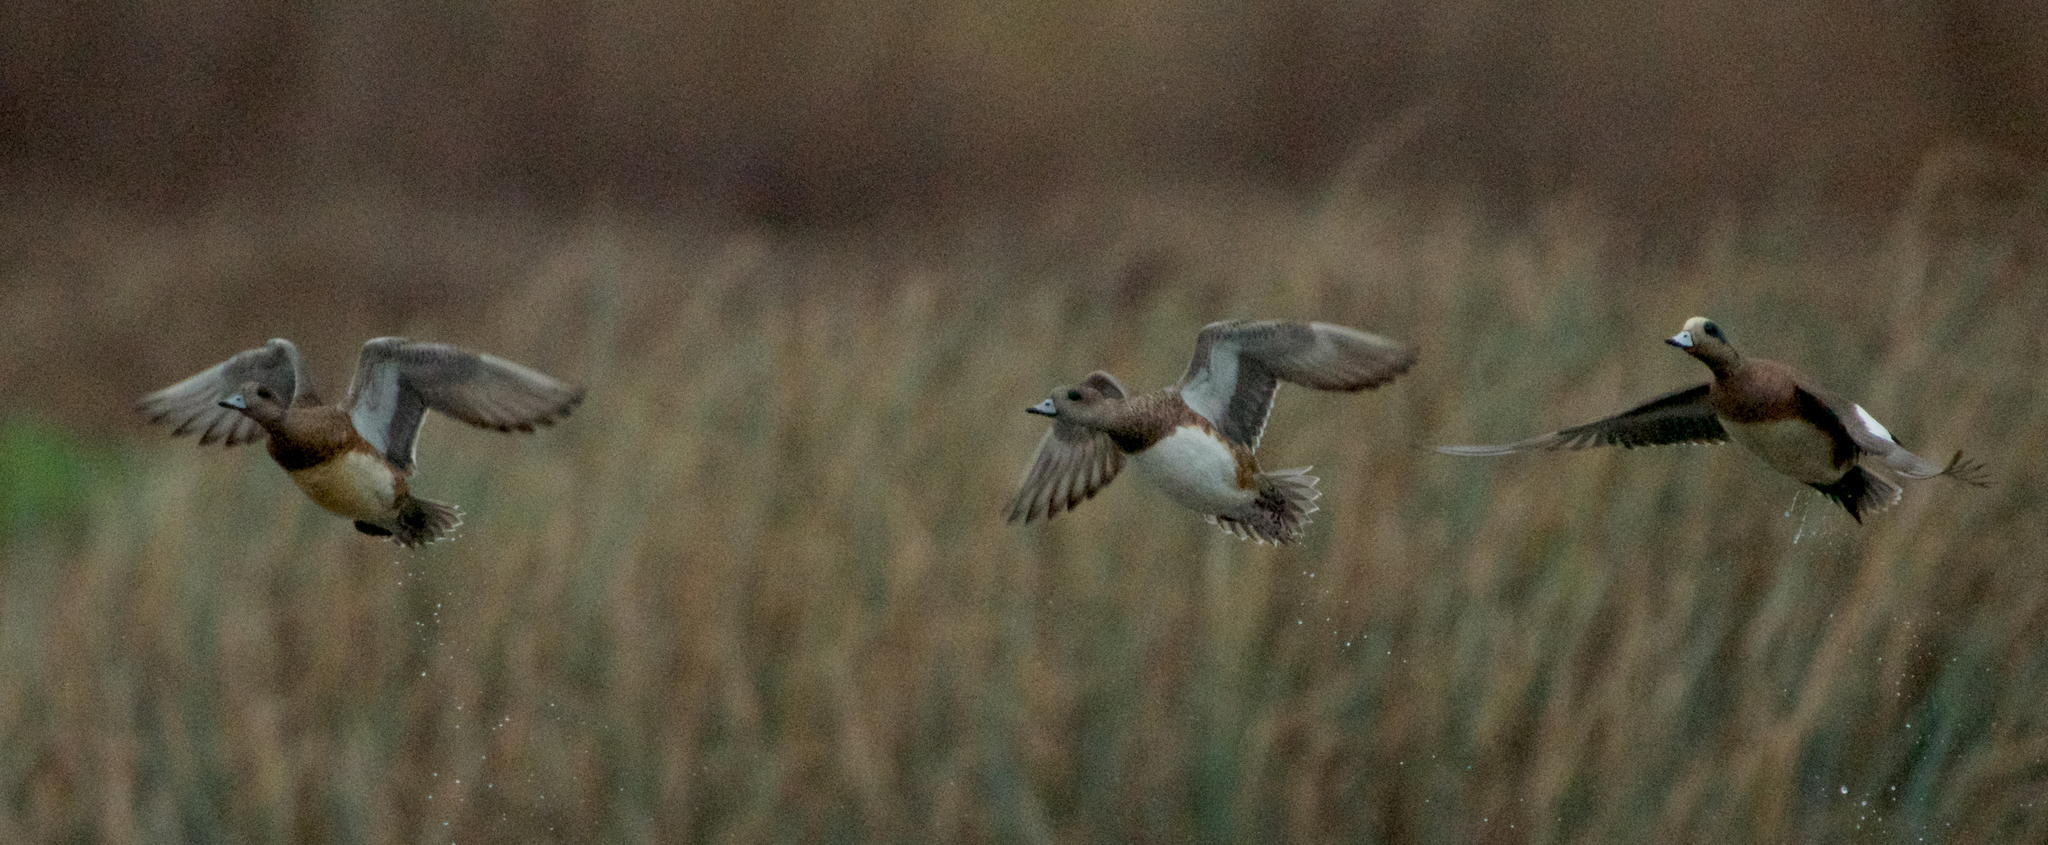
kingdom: Animalia
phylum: Chordata
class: Aves
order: Anseriformes
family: Anatidae
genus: Mareca
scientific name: Mareca americana
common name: American wigeon
